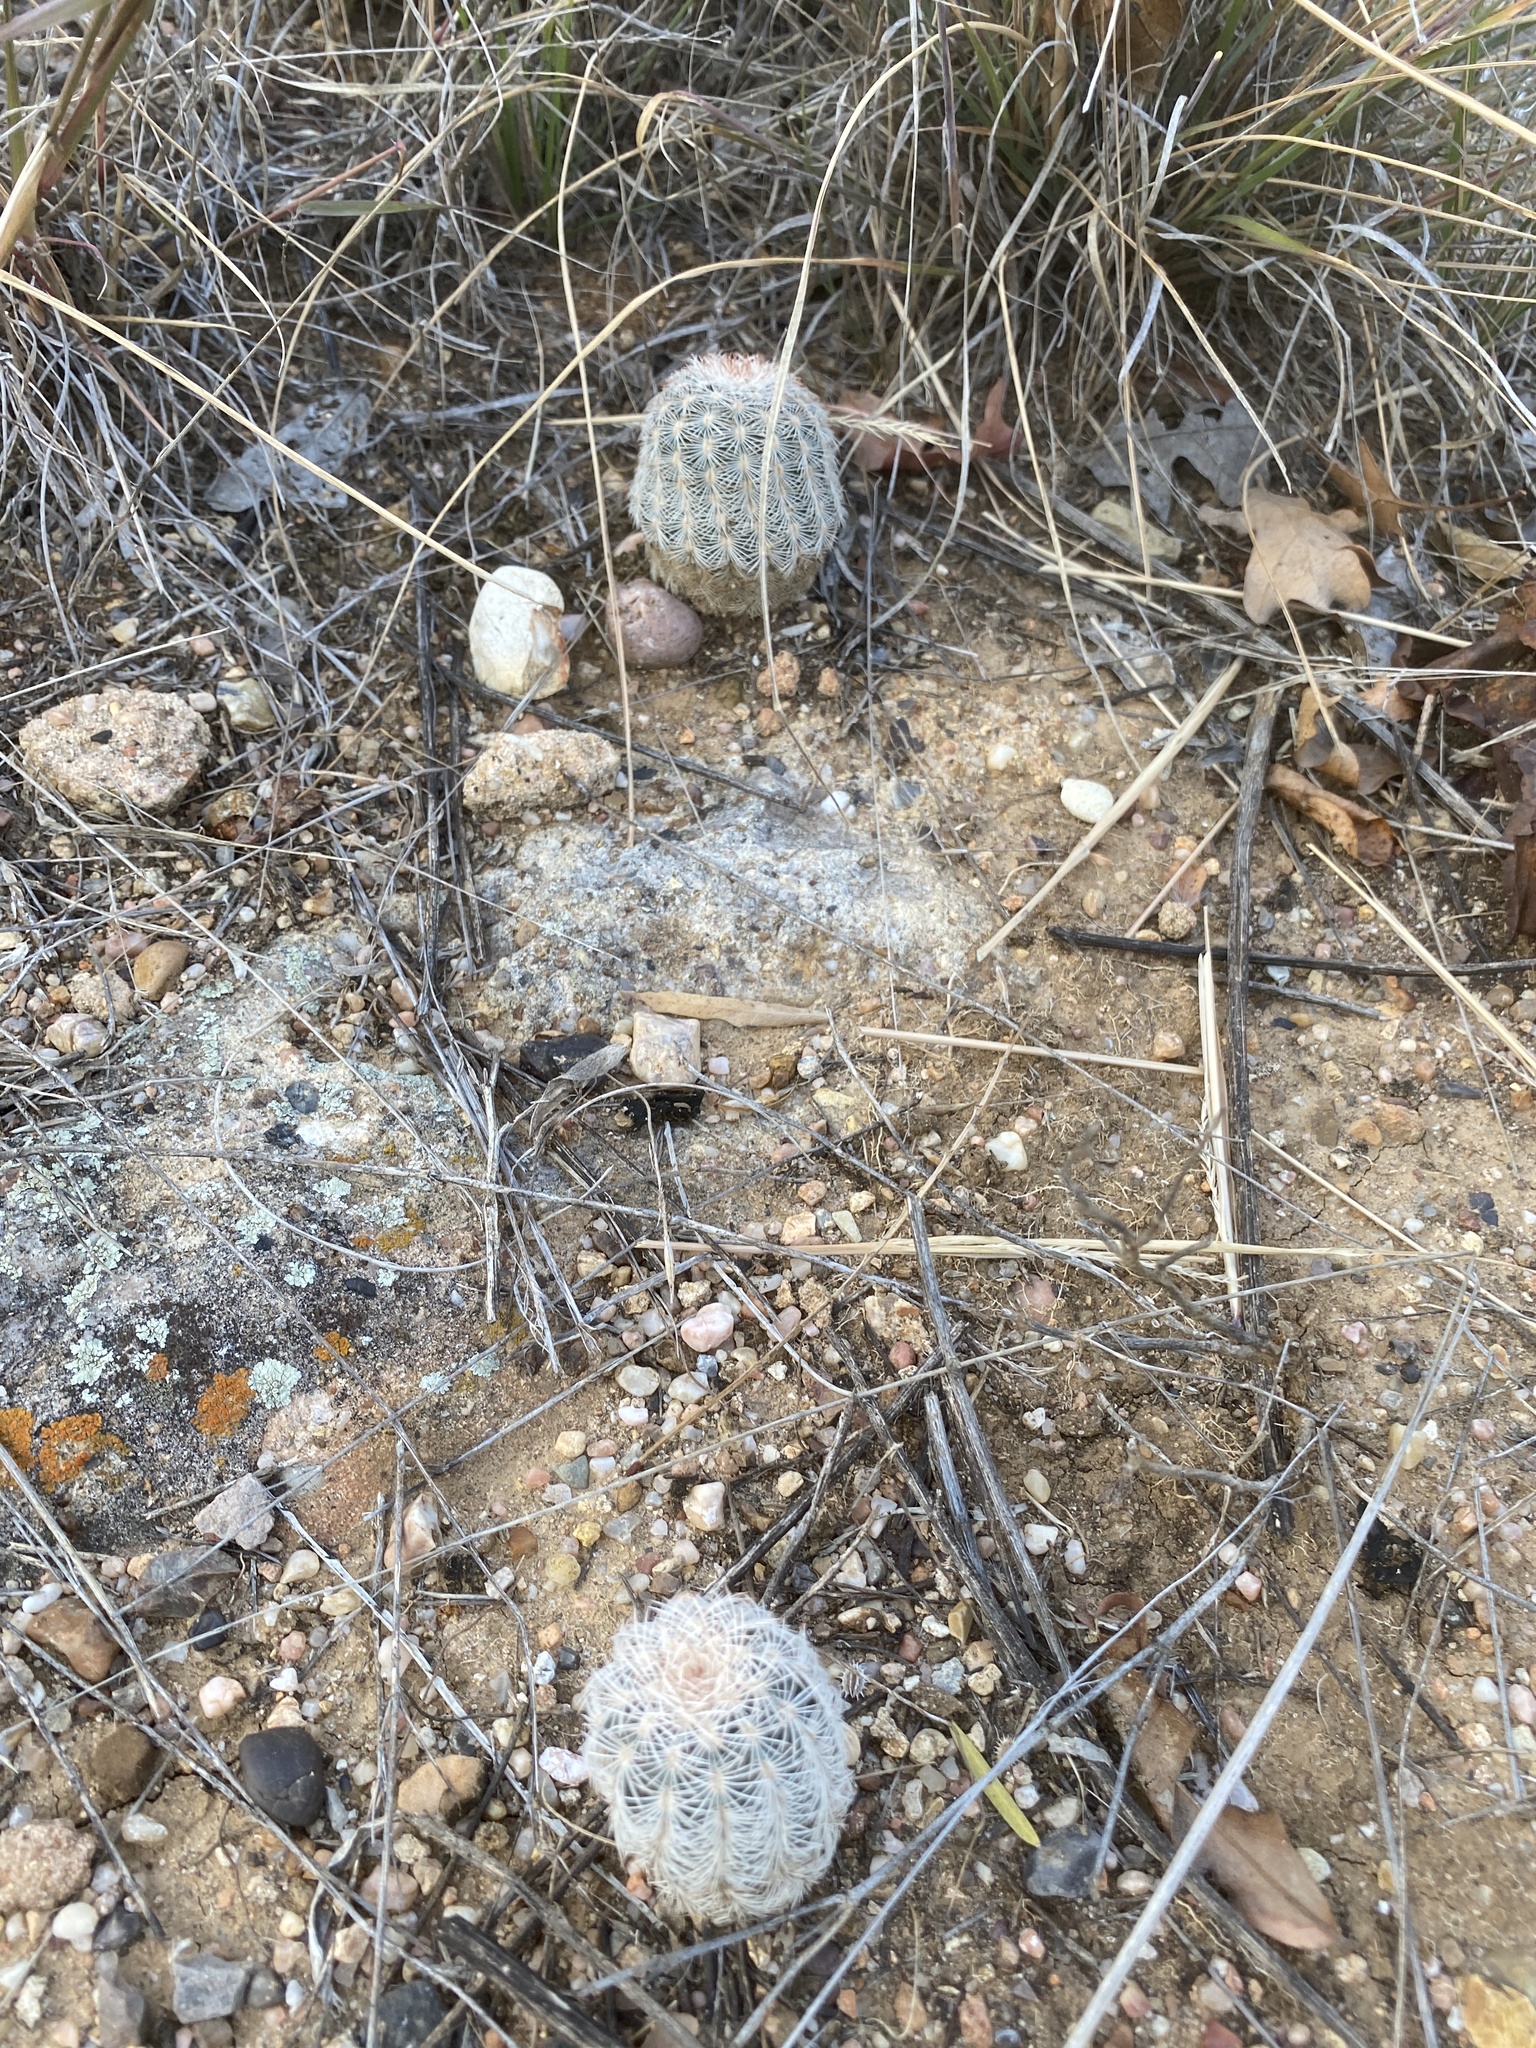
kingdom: Plantae
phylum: Tracheophyta
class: Magnoliopsida
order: Caryophyllales
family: Cactaceae
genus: Echinocereus
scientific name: Echinocereus reichenbachii
